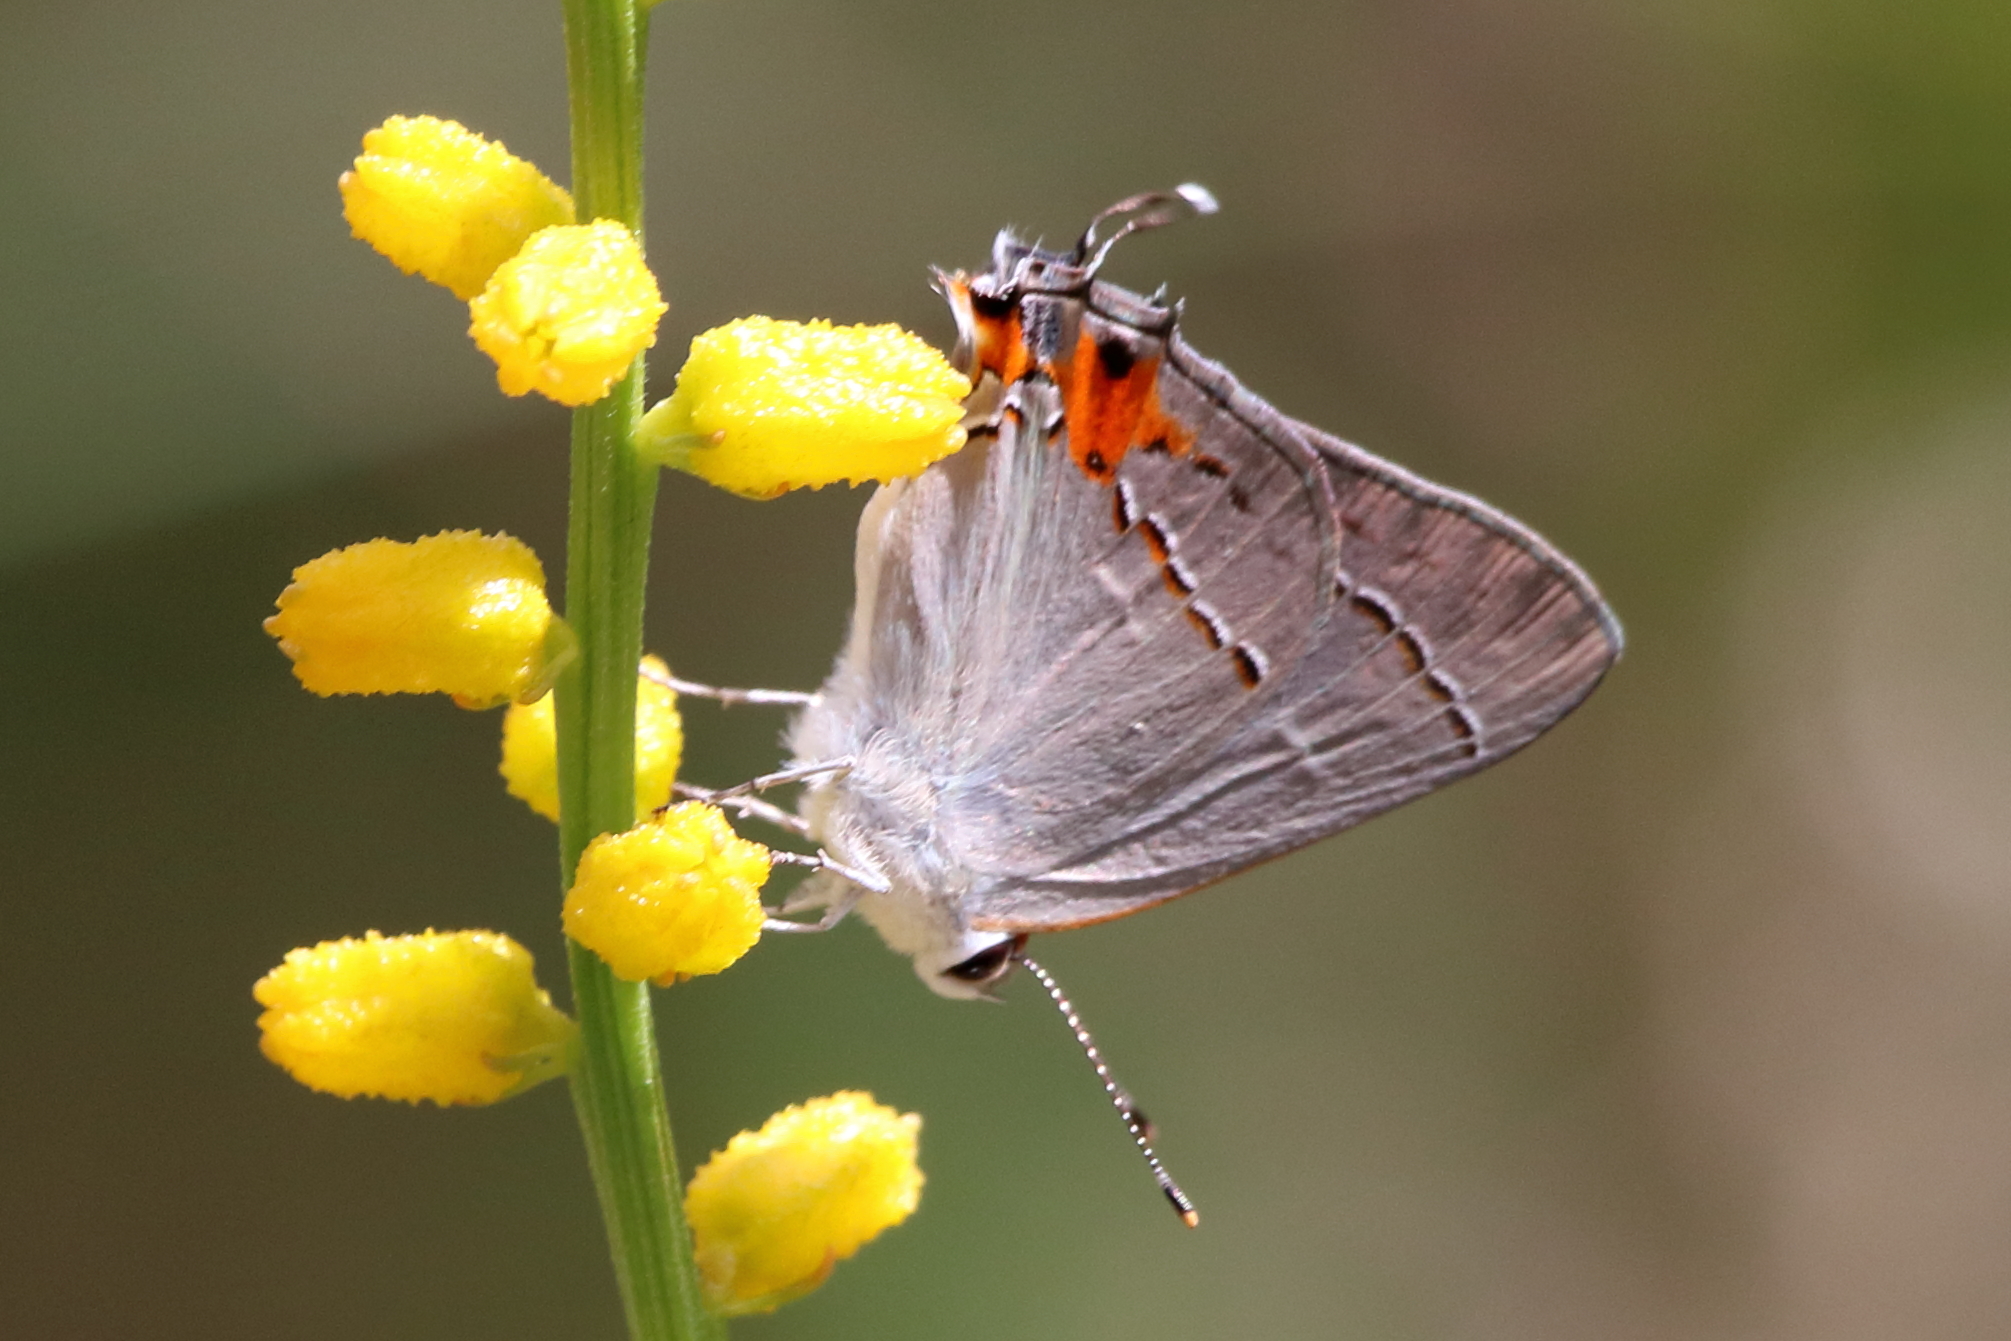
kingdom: Animalia
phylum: Arthropoda
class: Insecta
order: Lepidoptera
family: Lycaenidae
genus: Strymon
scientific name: Strymon melinus
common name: Gray hairstreak
